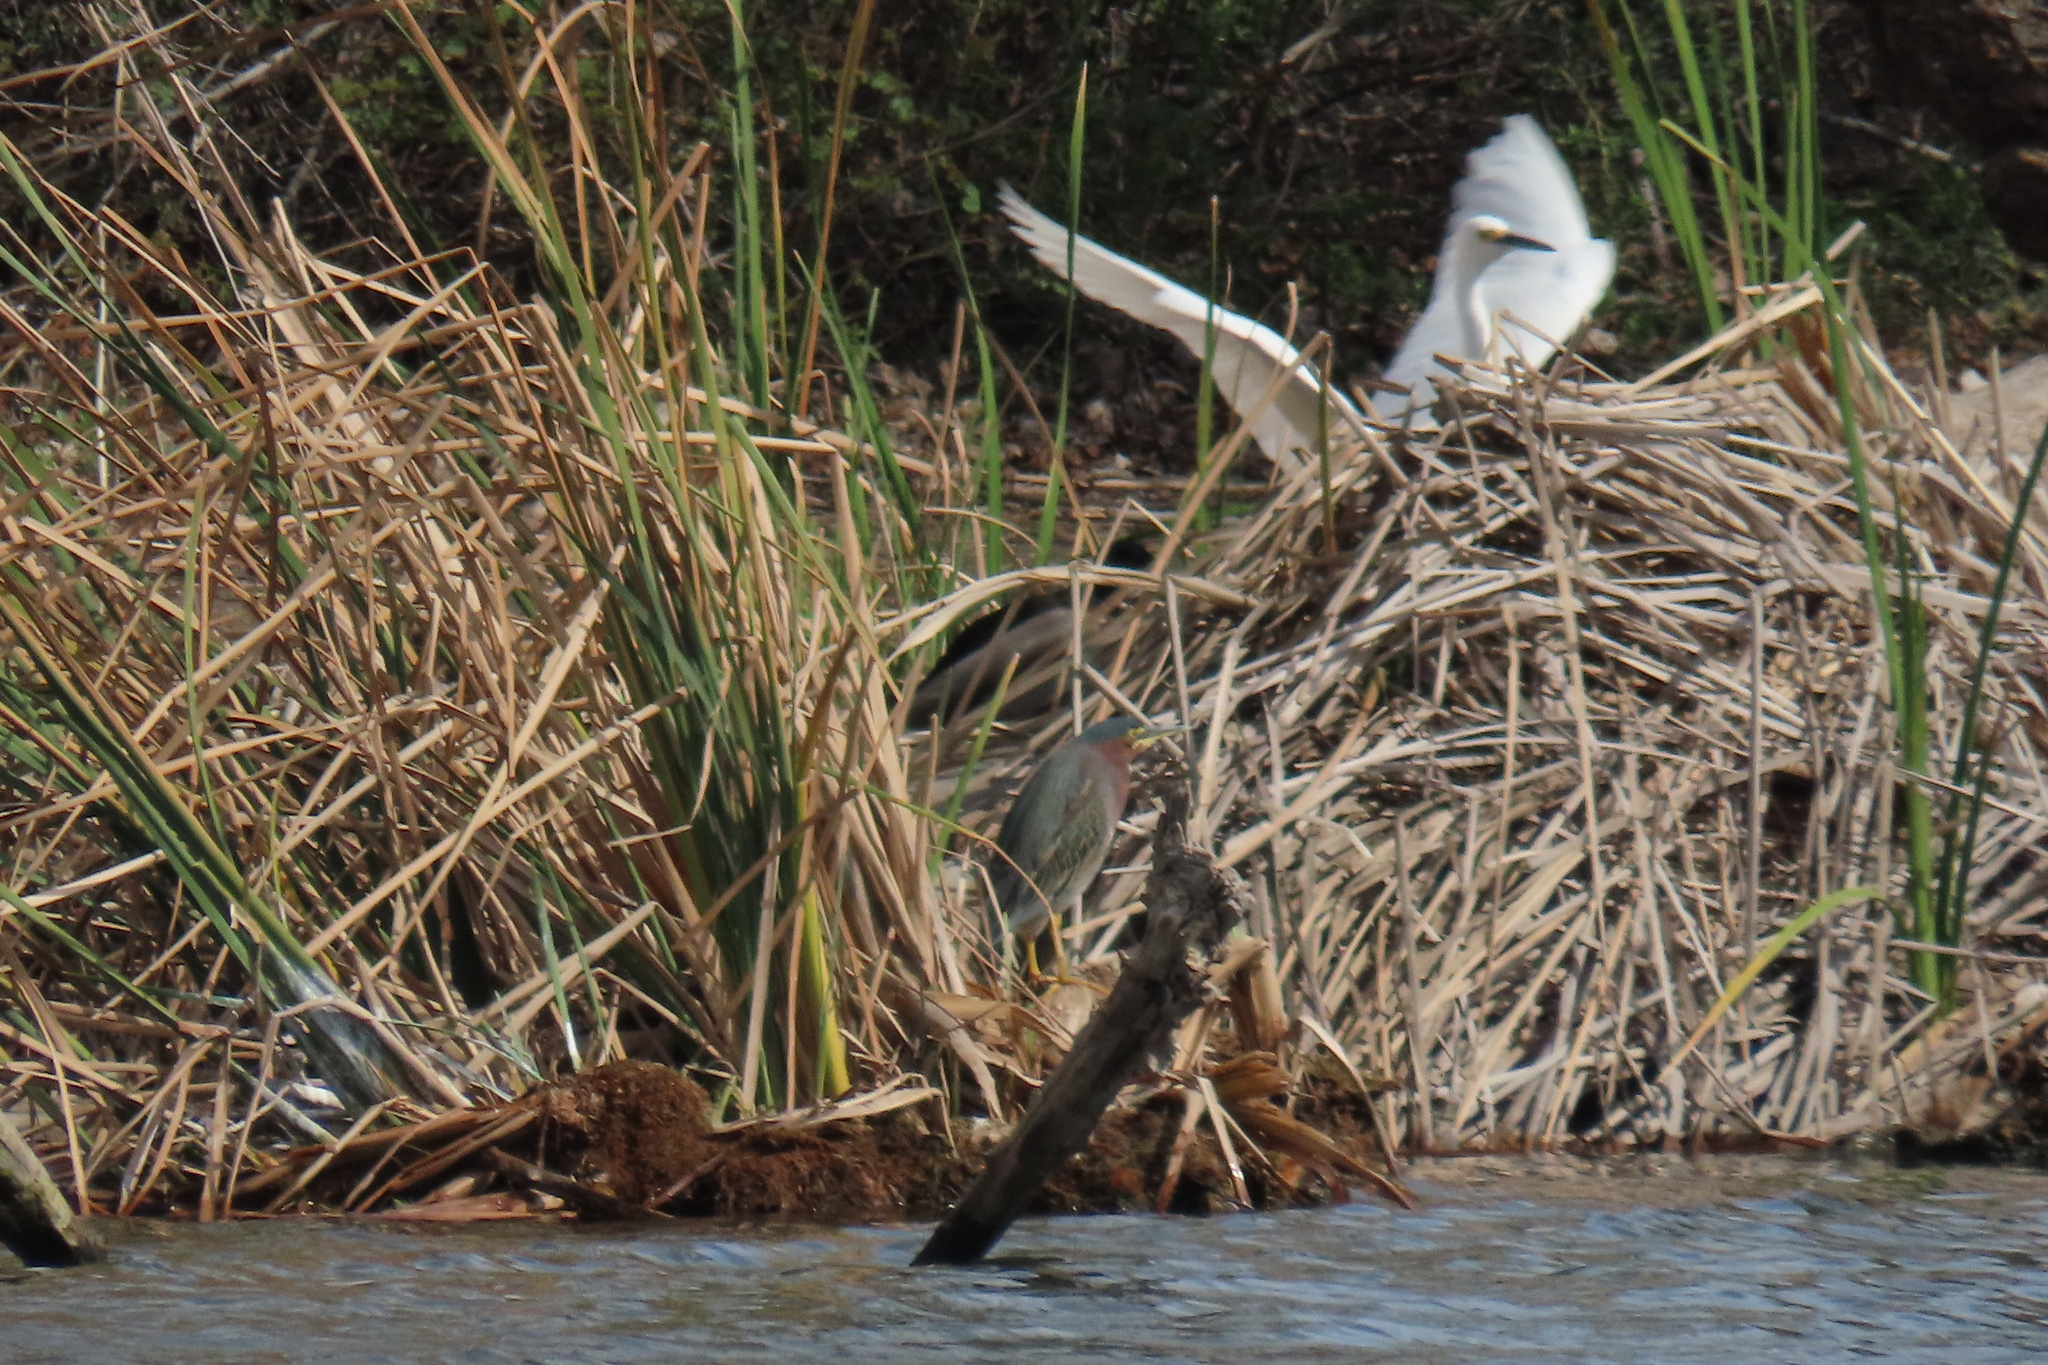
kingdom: Animalia
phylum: Chordata
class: Aves
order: Anseriformes
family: Anatidae
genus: Anas
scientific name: Anas platyrhynchos
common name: Mallard
